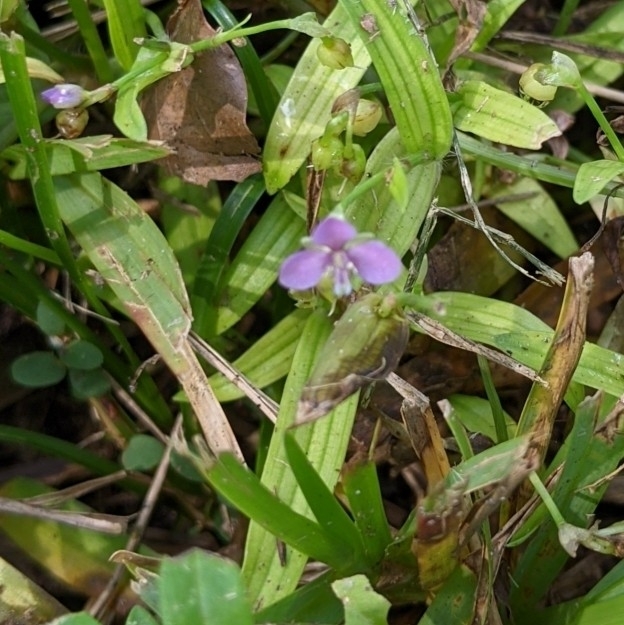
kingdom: Plantae
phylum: Tracheophyta
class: Liliopsida
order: Commelinales
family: Commelinaceae
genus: Murdannia
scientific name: Murdannia nudiflora
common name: Nakedstem dewflower
